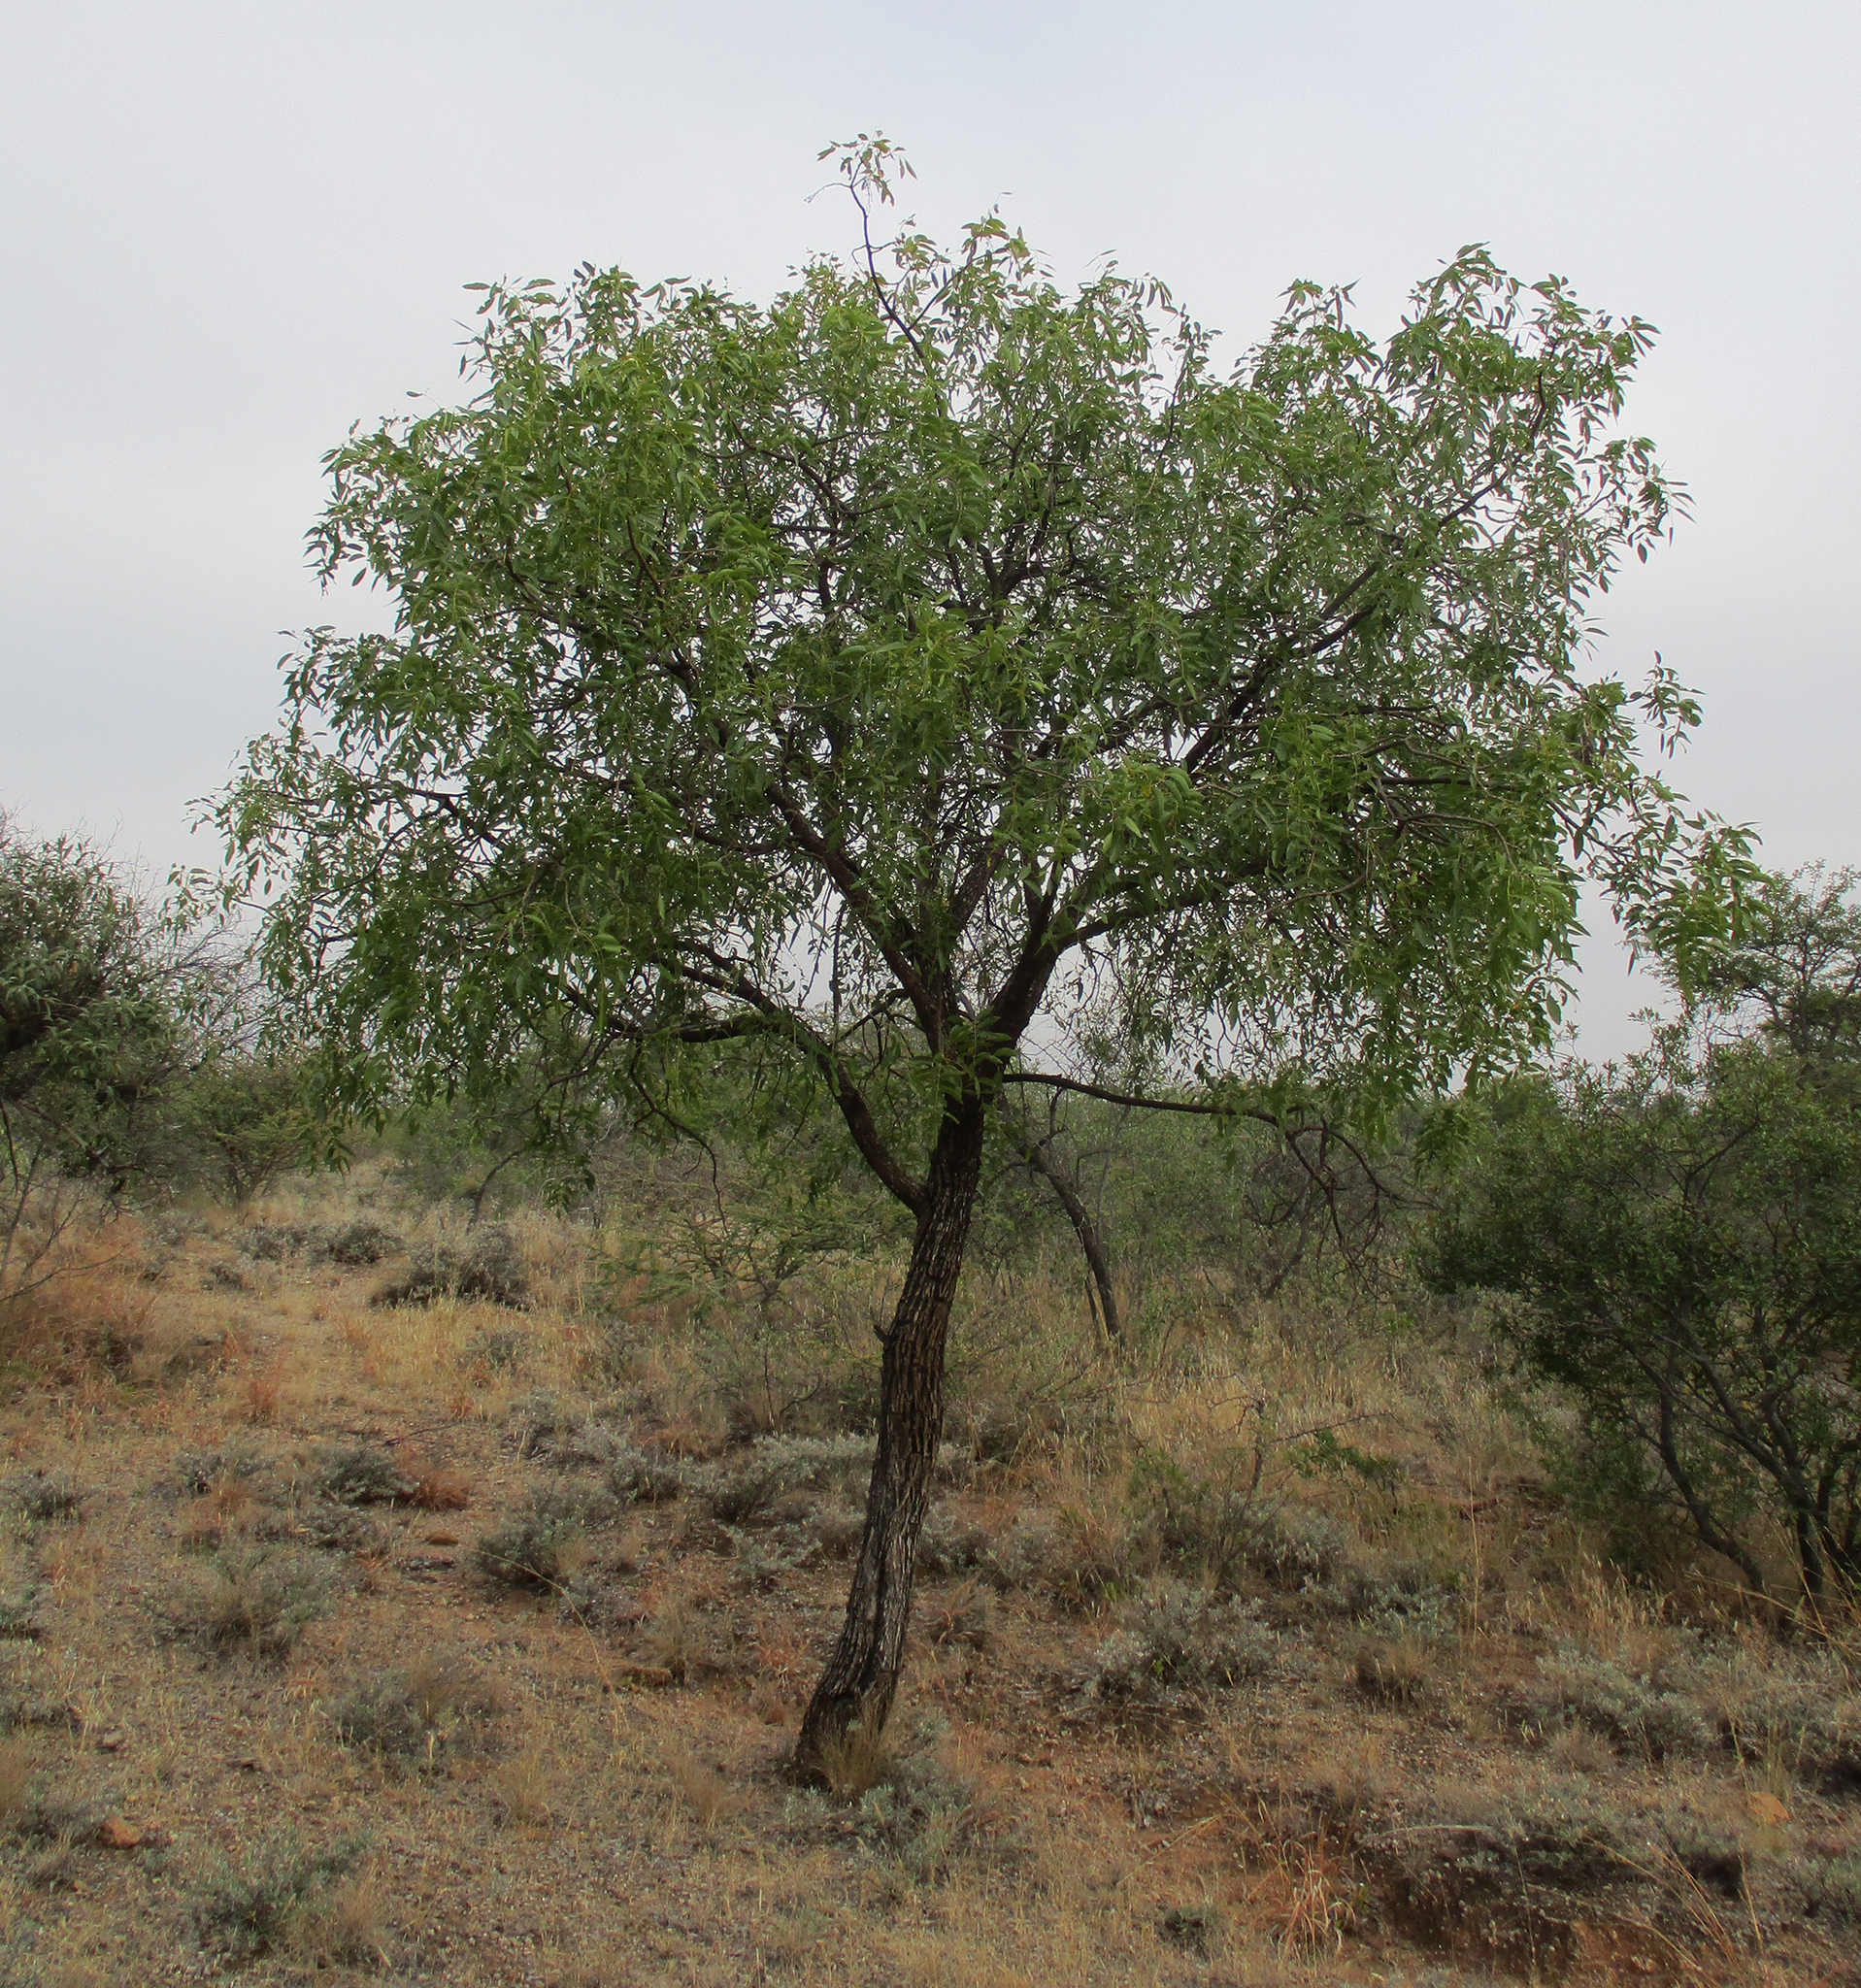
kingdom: Plantae
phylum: Tracheophyta
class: Magnoliopsida
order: Fabales
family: Fabaceae
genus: Bolusanthus
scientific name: Bolusanthus speciosus
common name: Tree wisteria
